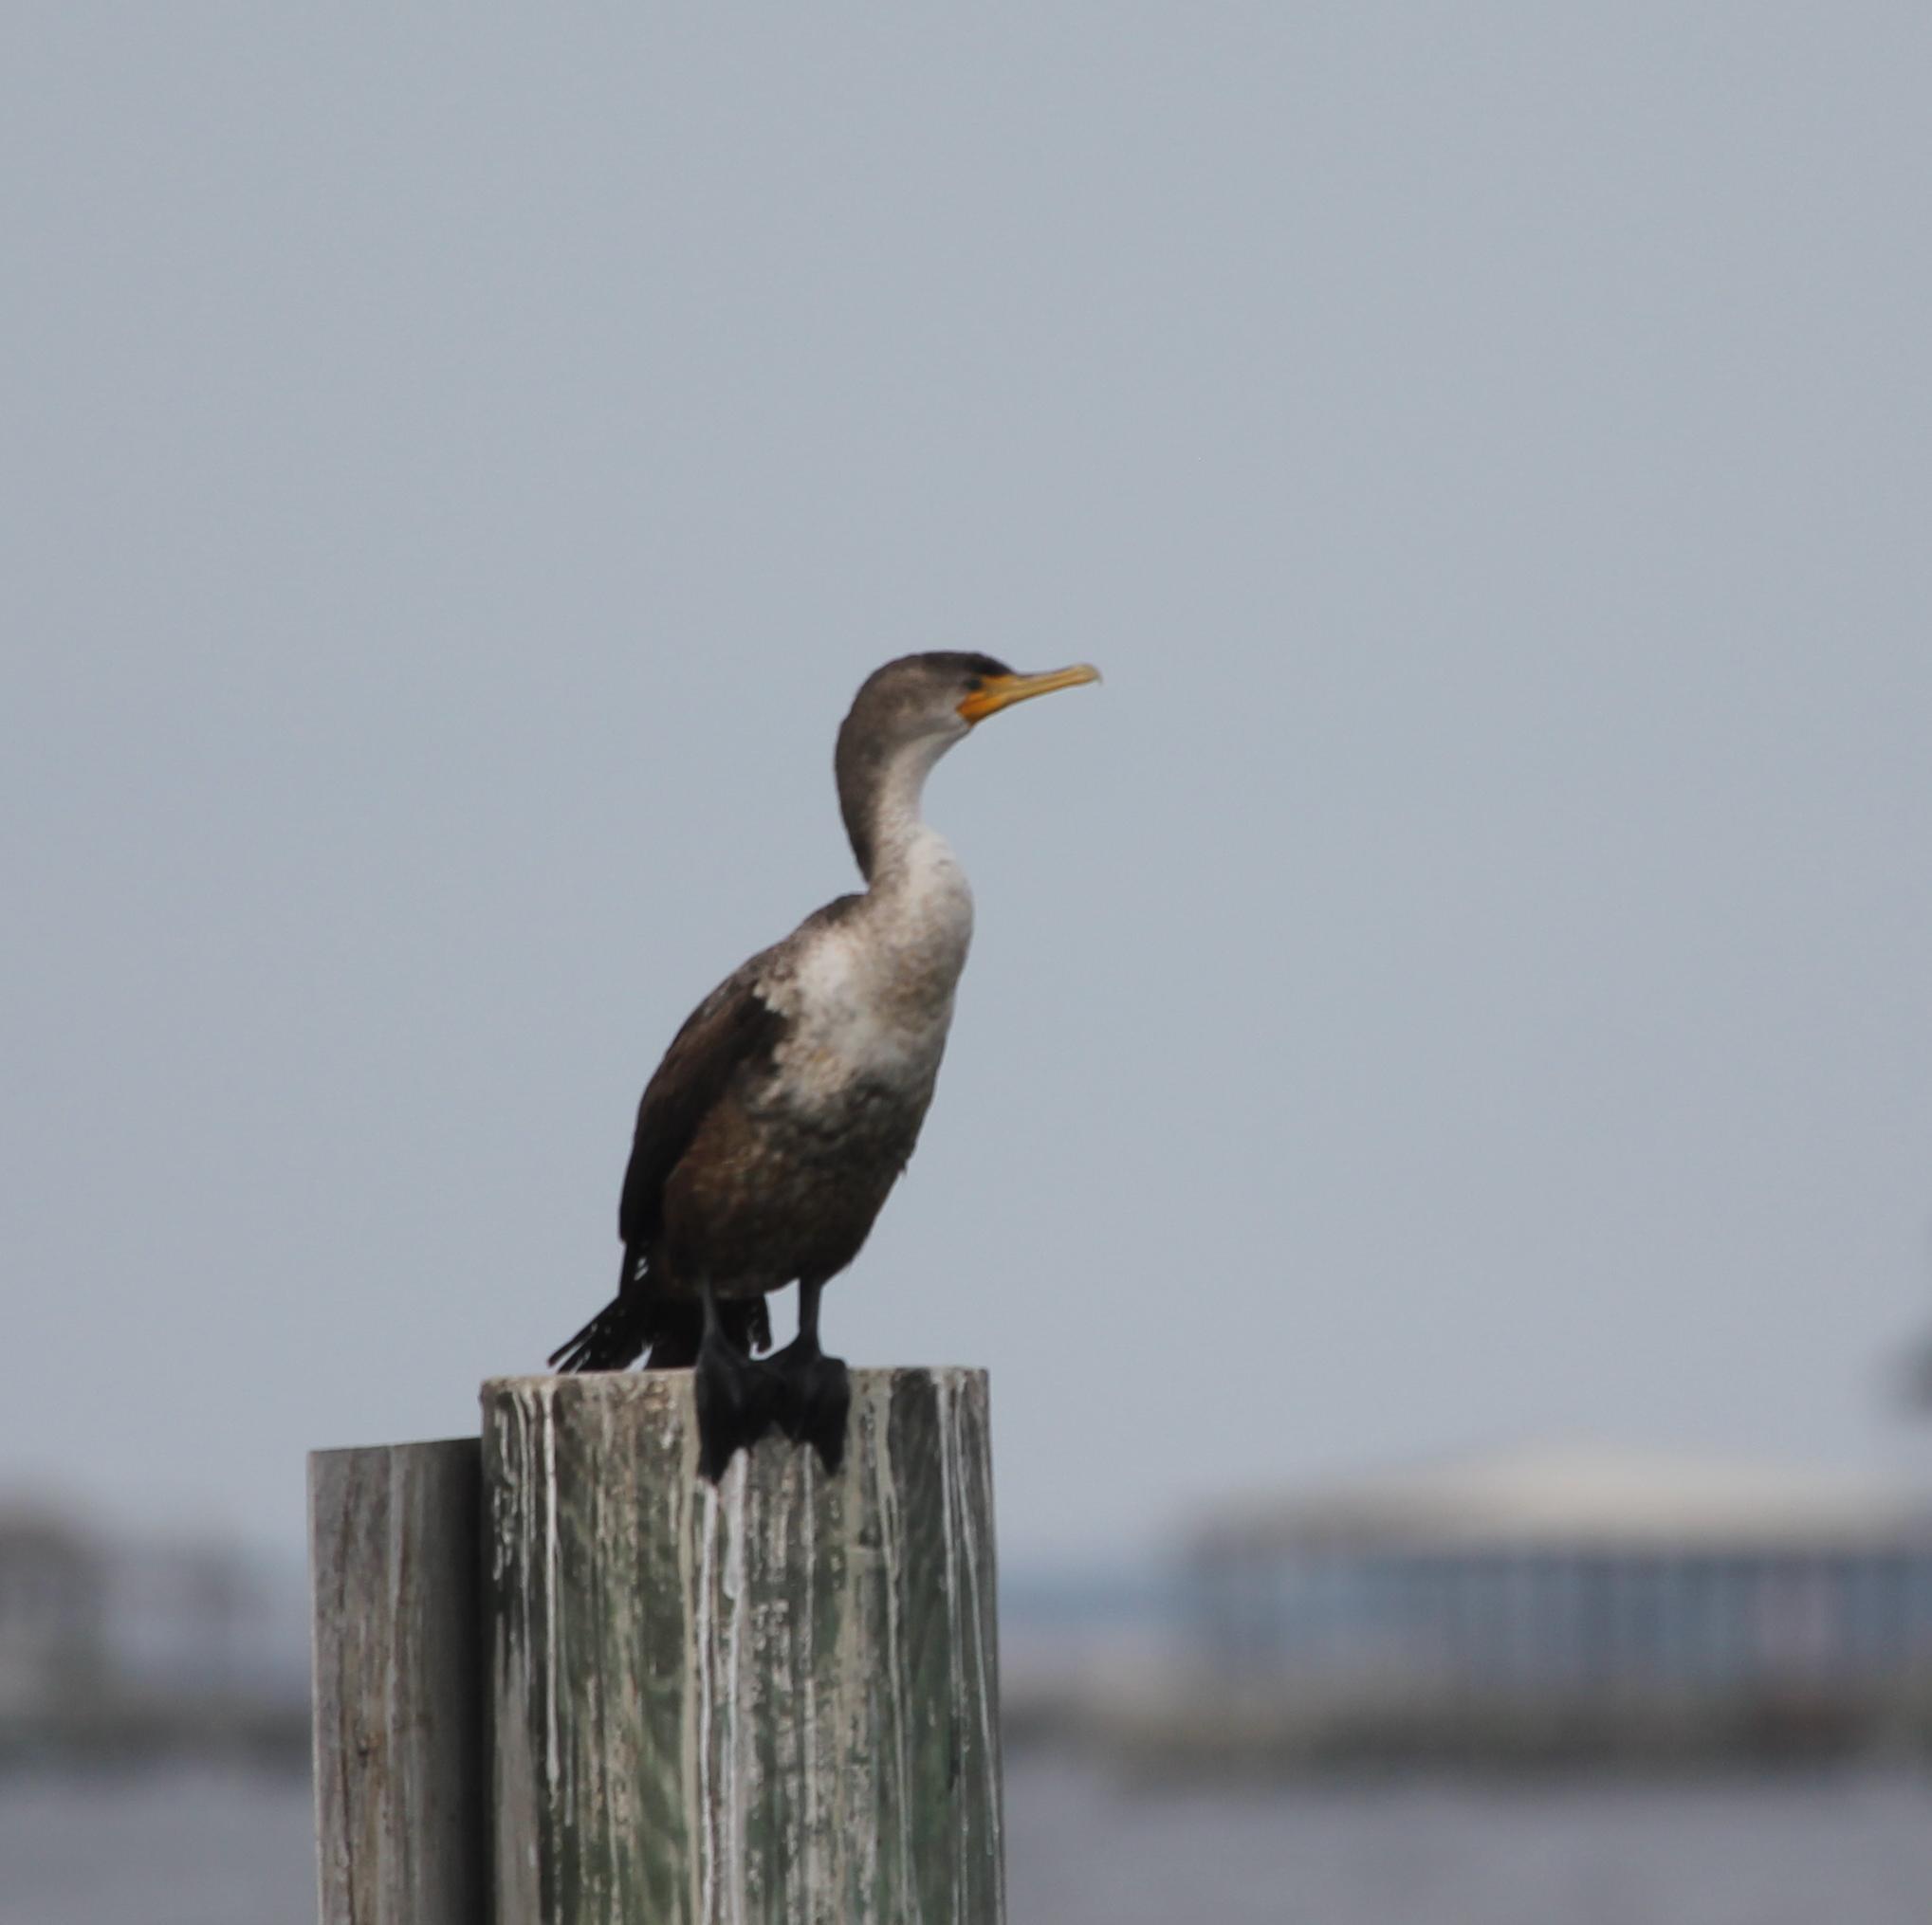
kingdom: Animalia
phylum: Chordata
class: Aves
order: Suliformes
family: Phalacrocoracidae
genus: Phalacrocorax
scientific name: Phalacrocorax auritus
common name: Double-crested cormorant
